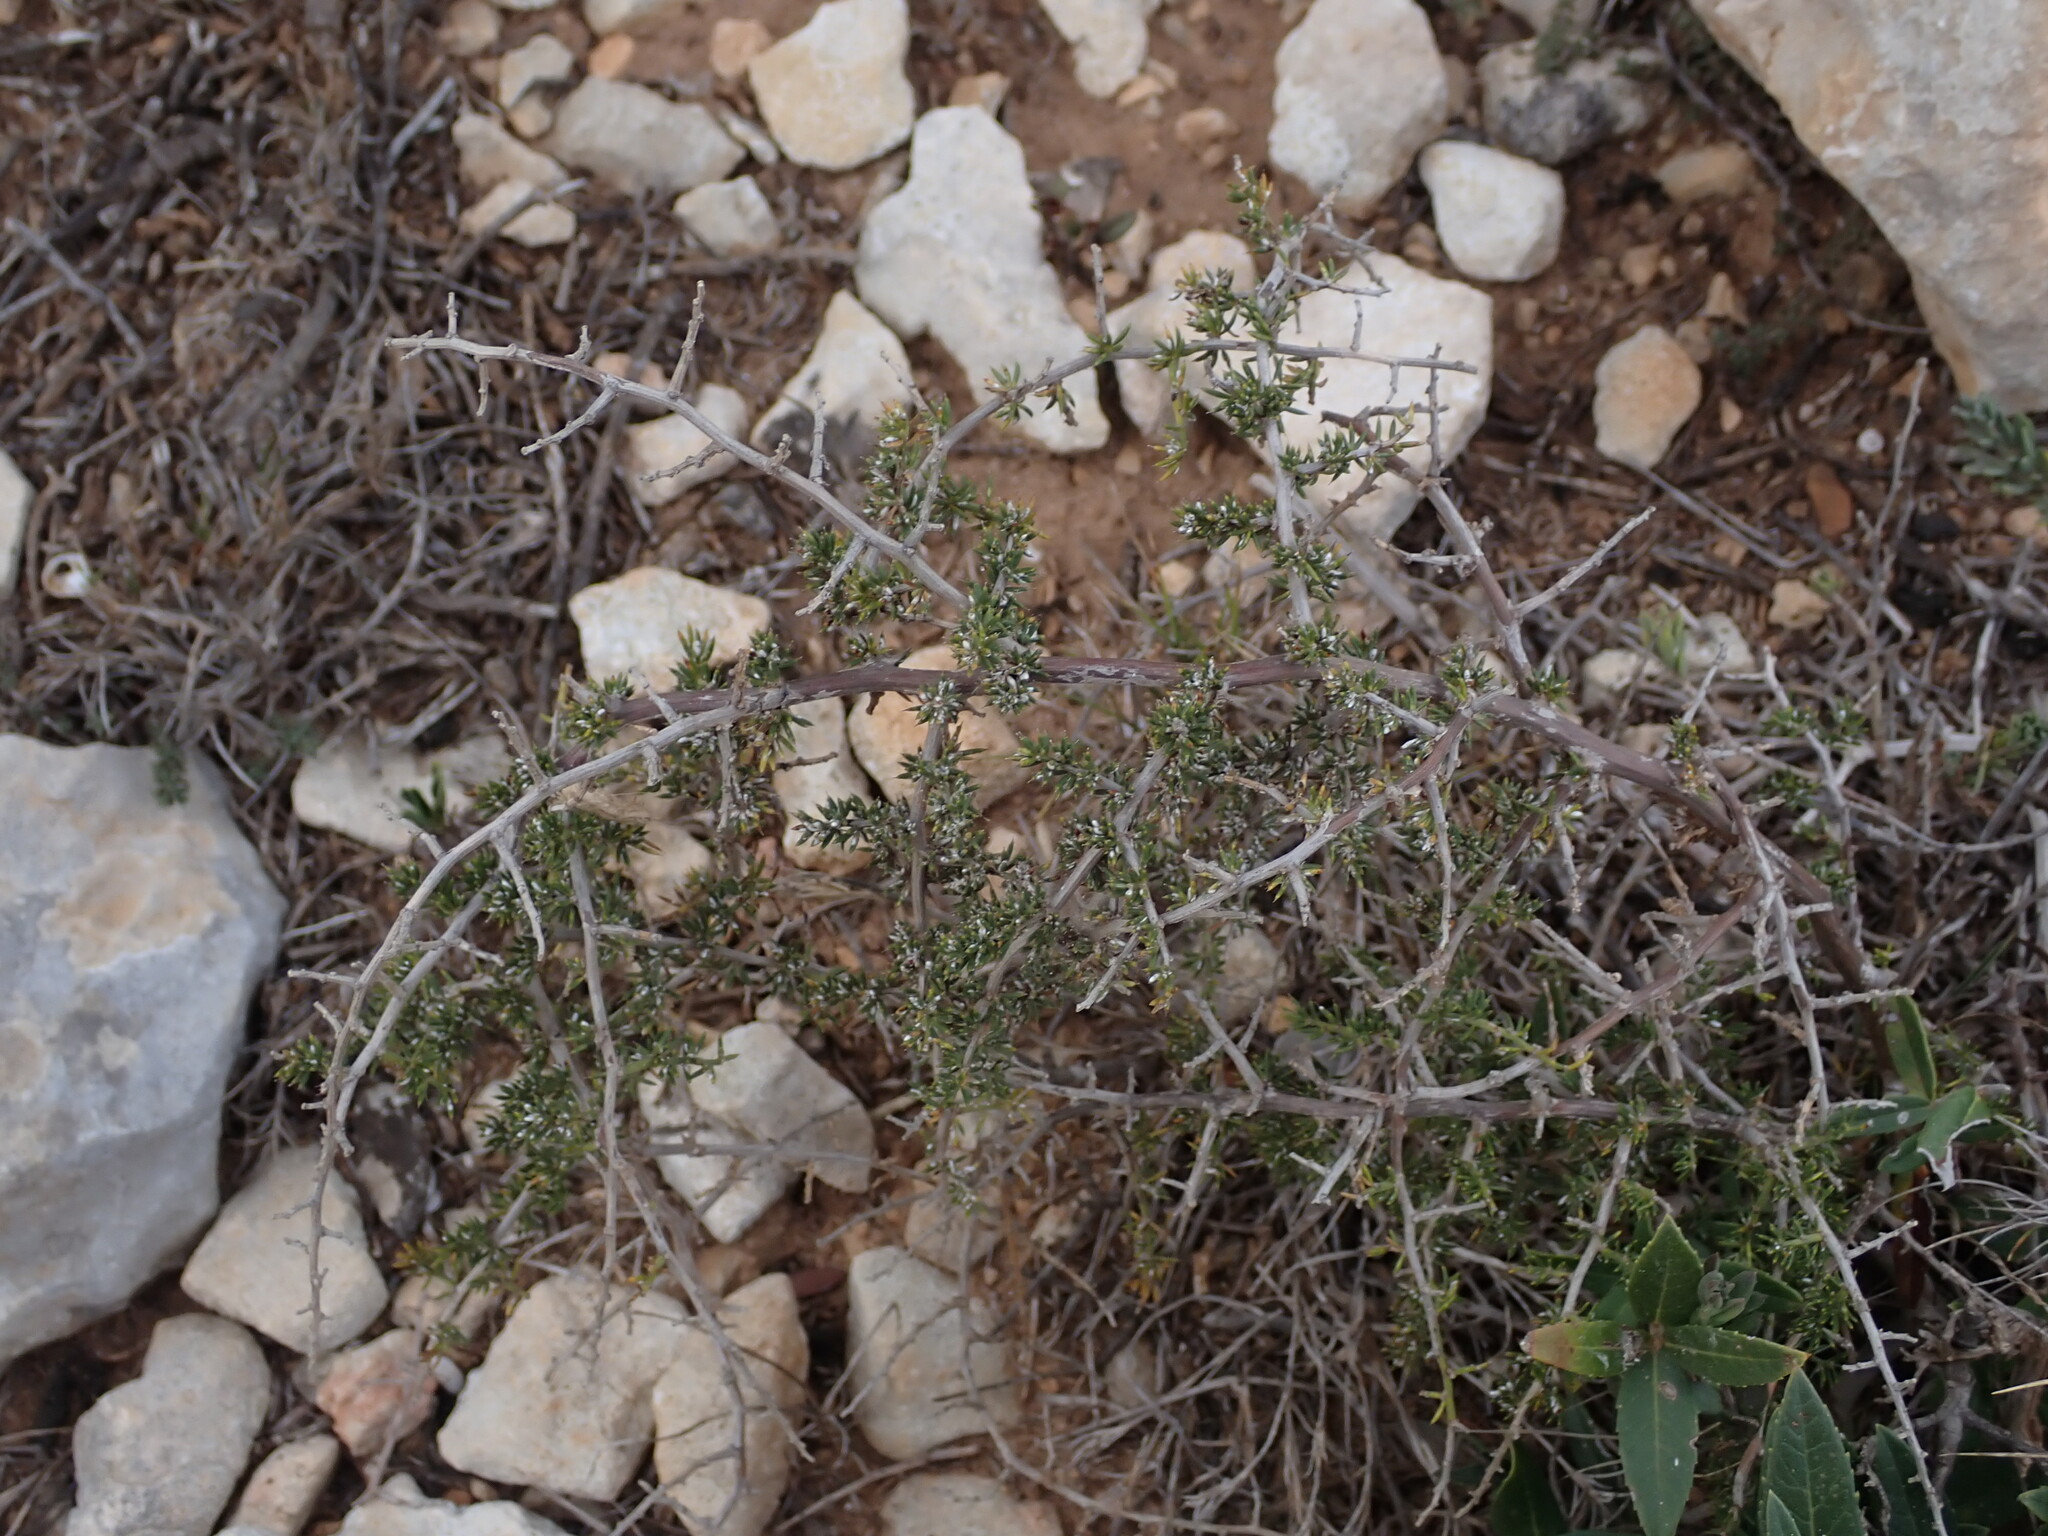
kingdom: Plantae
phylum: Tracheophyta
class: Liliopsida
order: Asparagales
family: Asparagaceae
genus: Asparagus
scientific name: Asparagus acutifolius
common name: Wild asparagus
